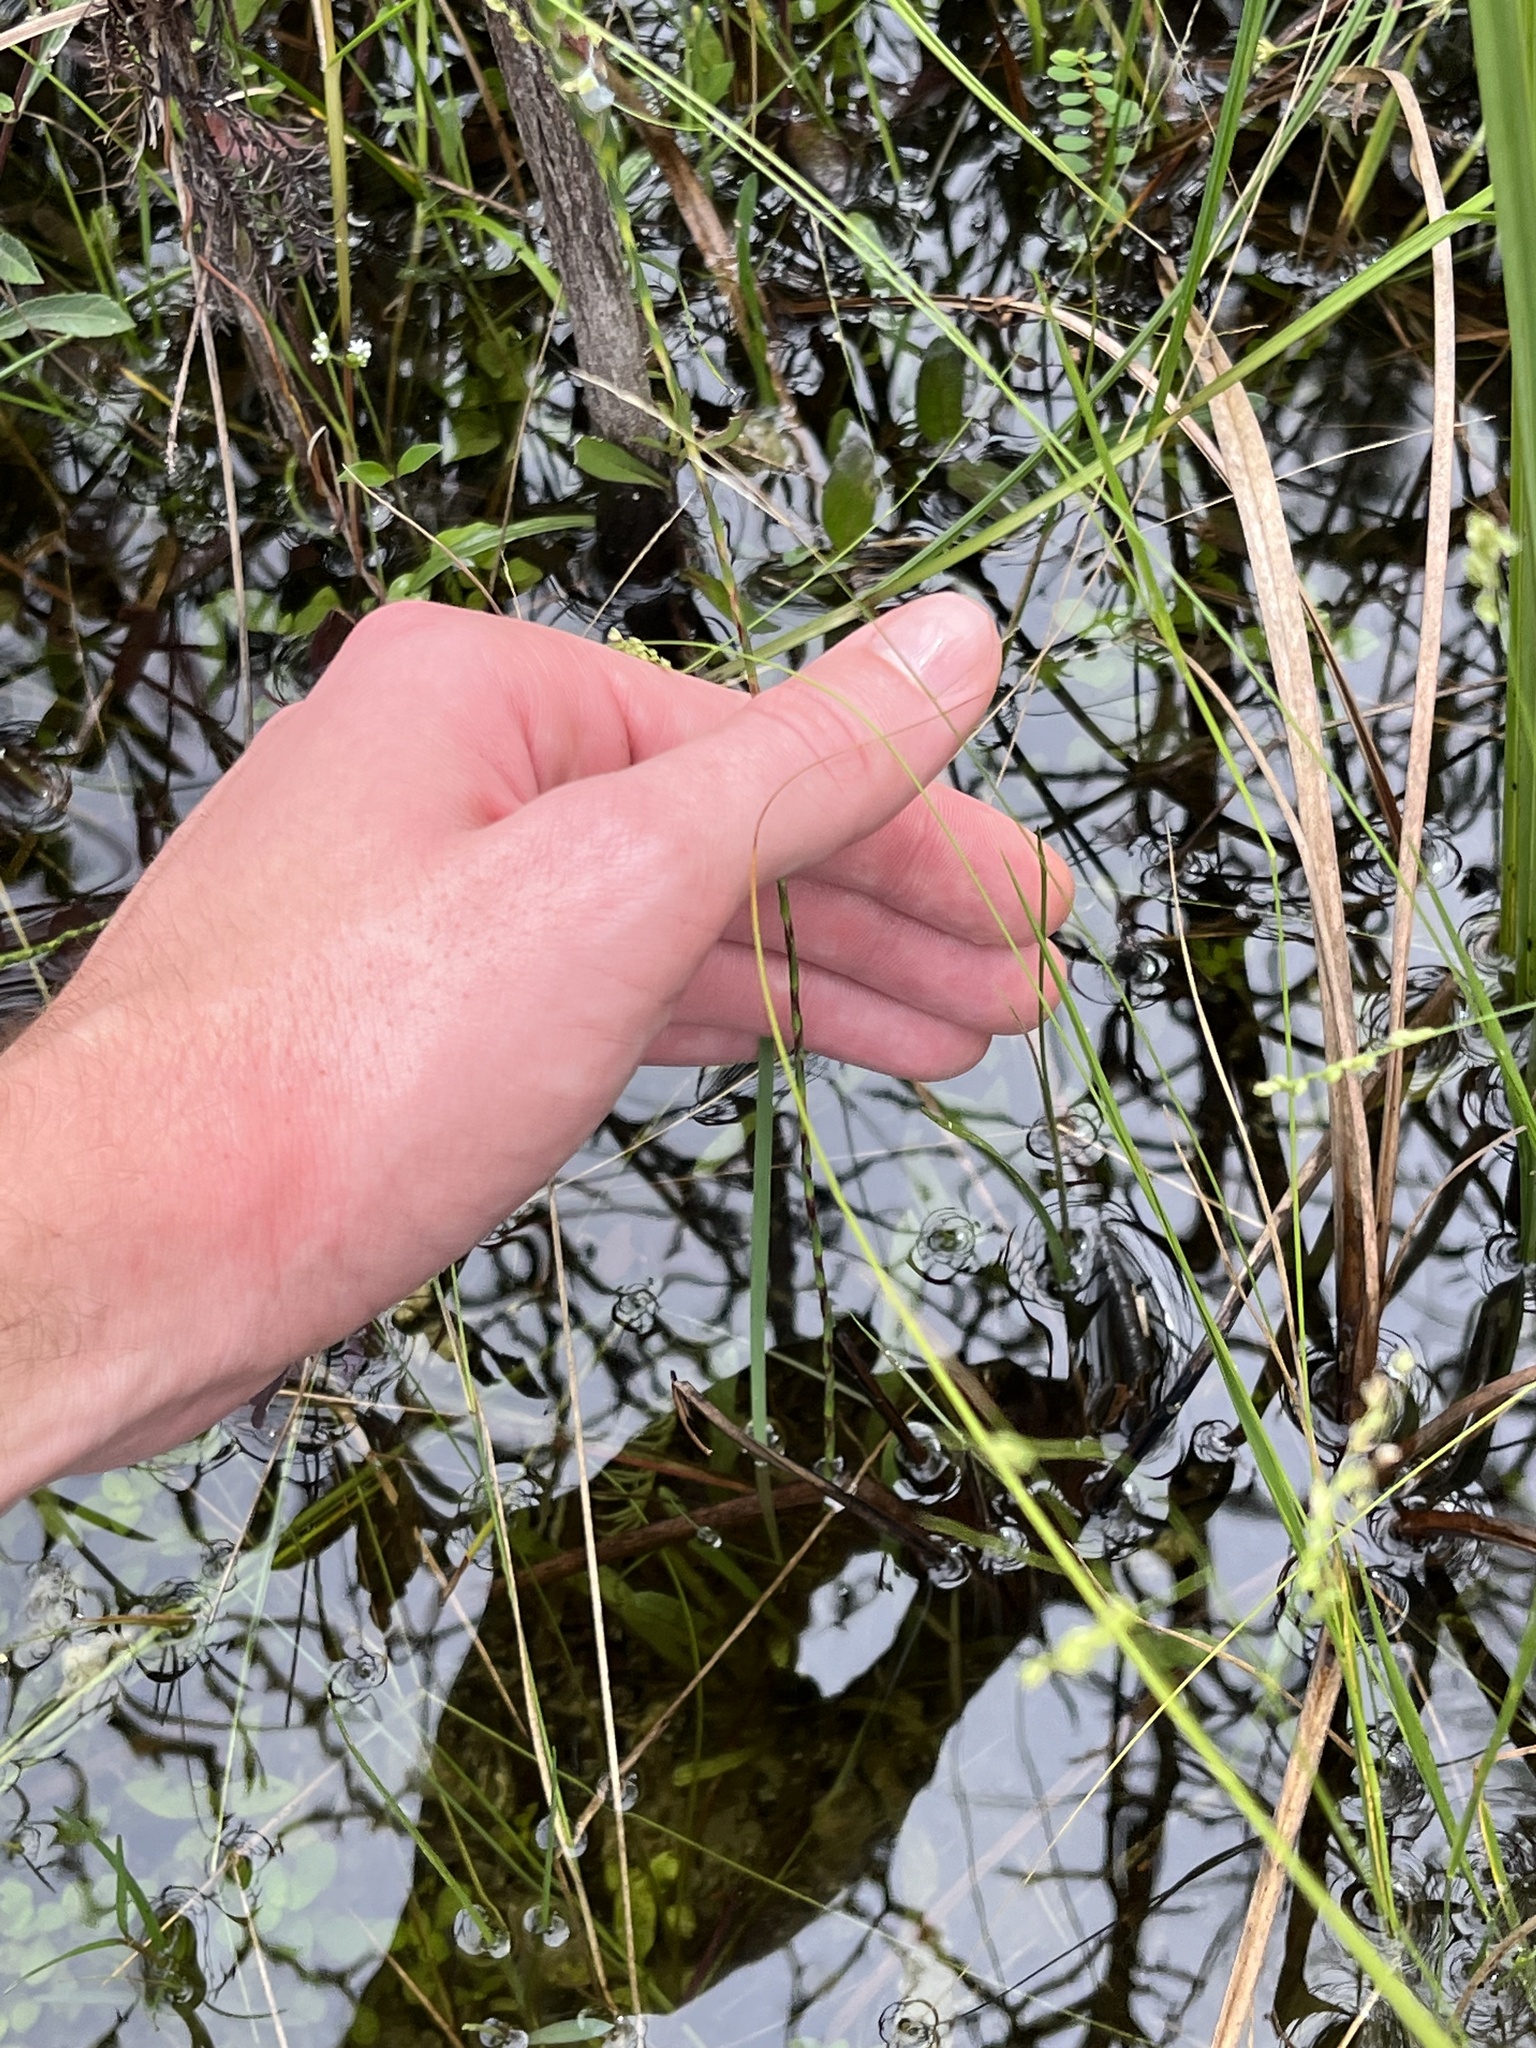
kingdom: Plantae
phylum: Tracheophyta
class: Magnoliopsida
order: Lamiales
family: Acanthaceae
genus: Elytraria
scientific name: Elytraria caroliniensis
